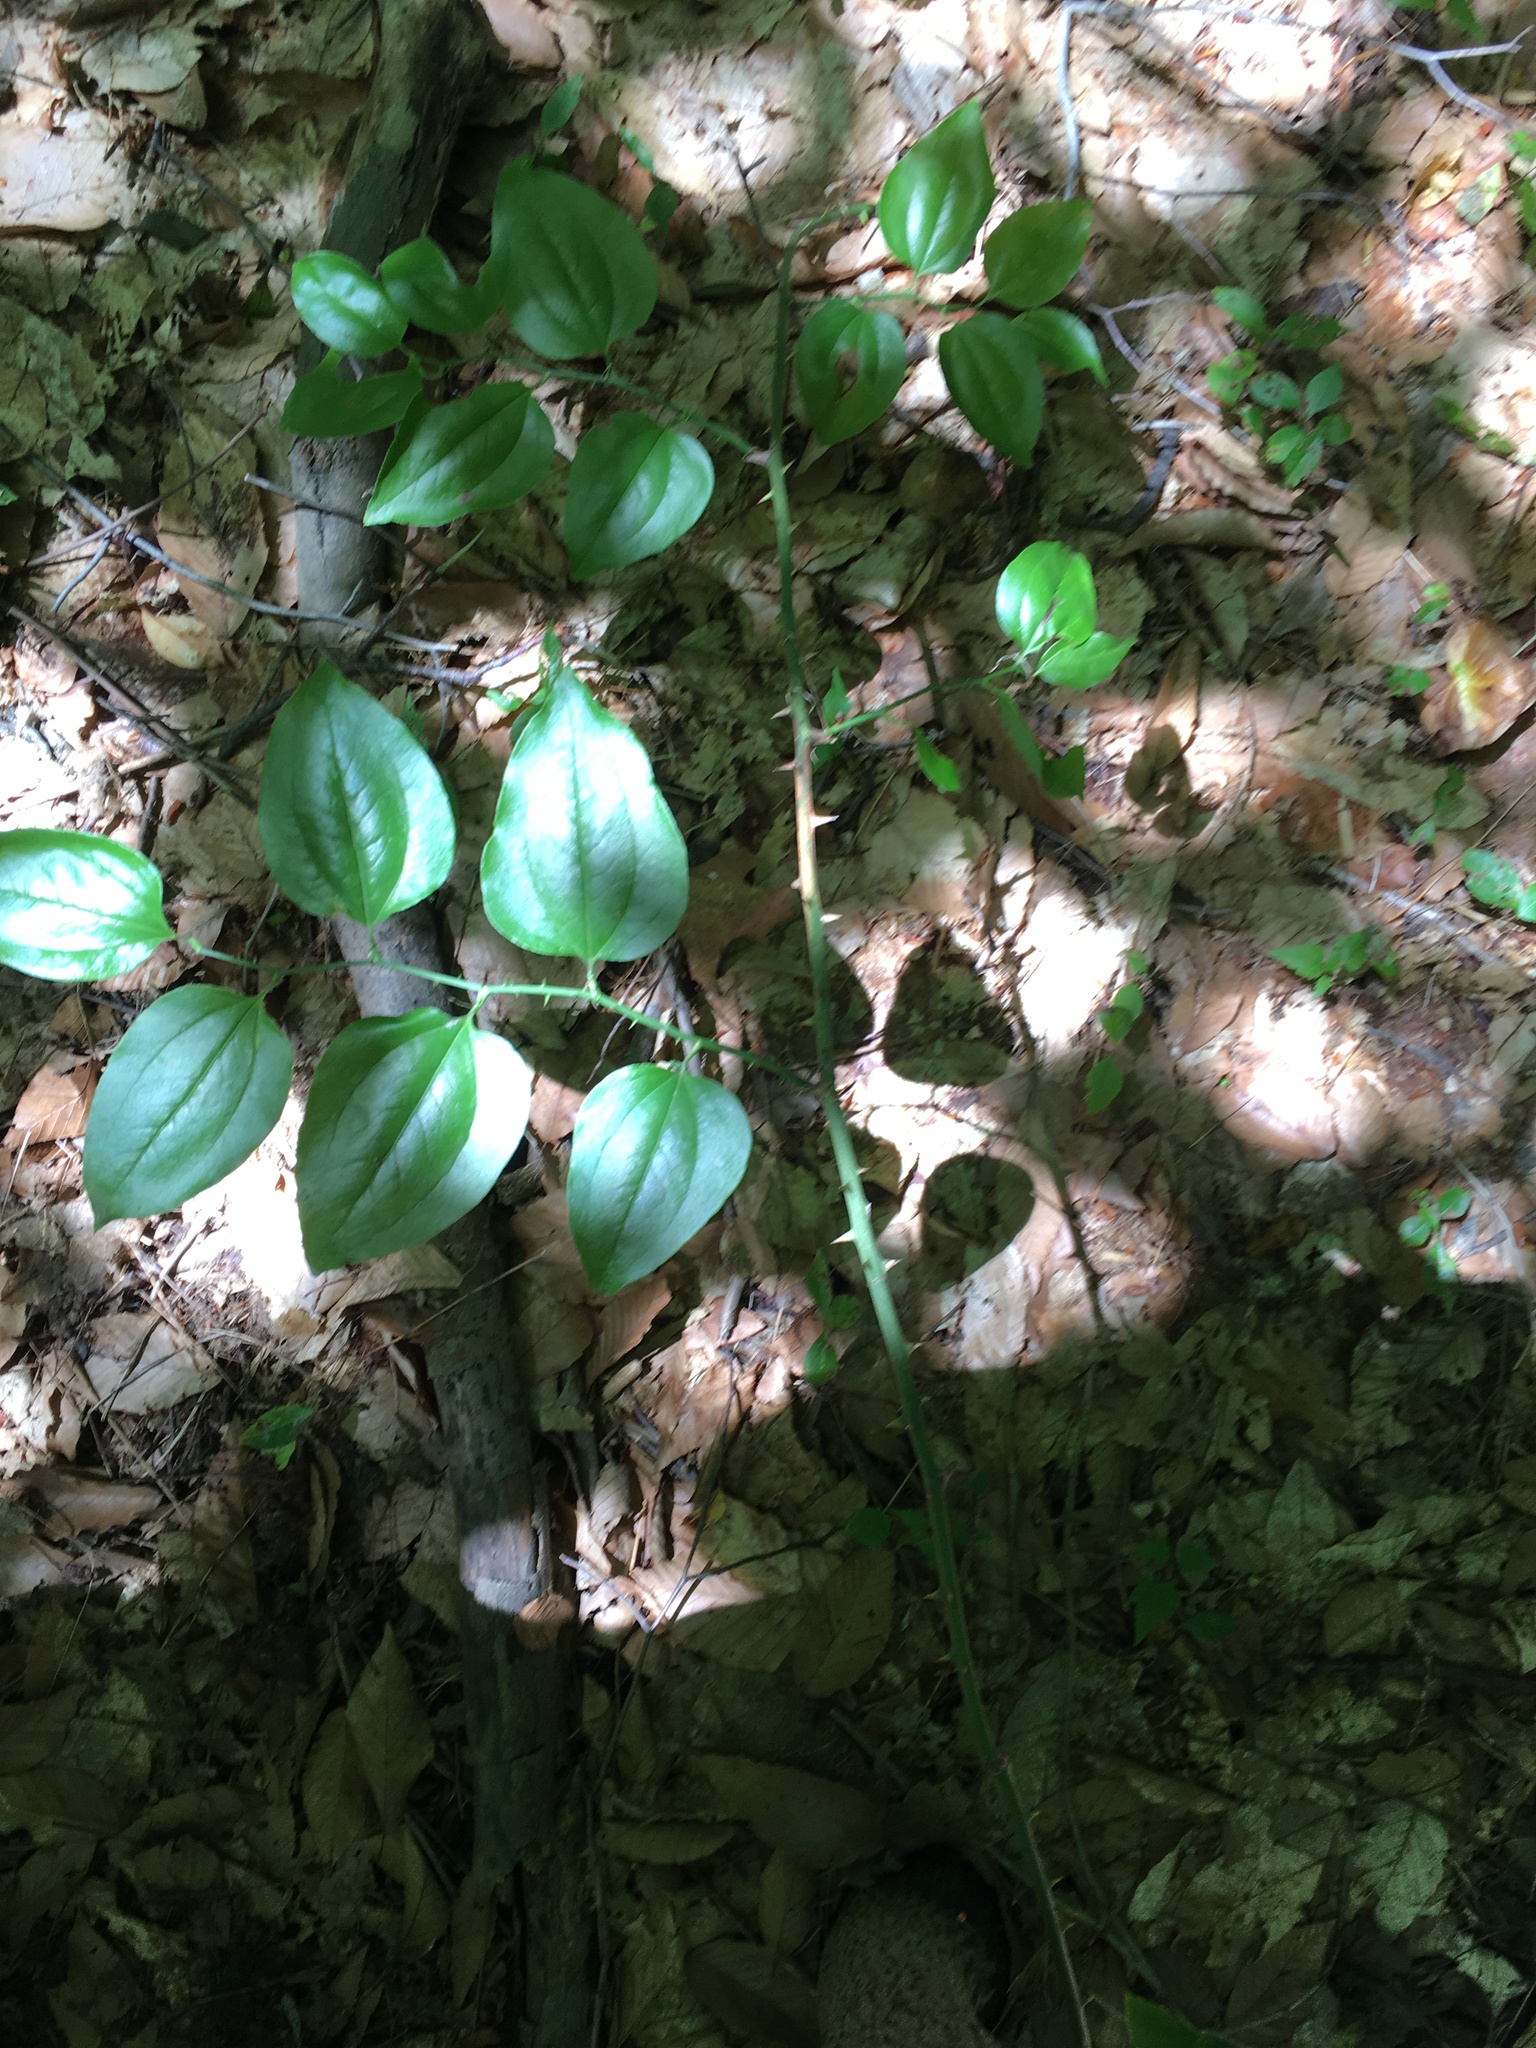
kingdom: Plantae
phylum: Tracheophyta
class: Liliopsida
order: Liliales
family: Smilacaceae
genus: Smilax
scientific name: Smilax rotundifolia
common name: Bullbriar
